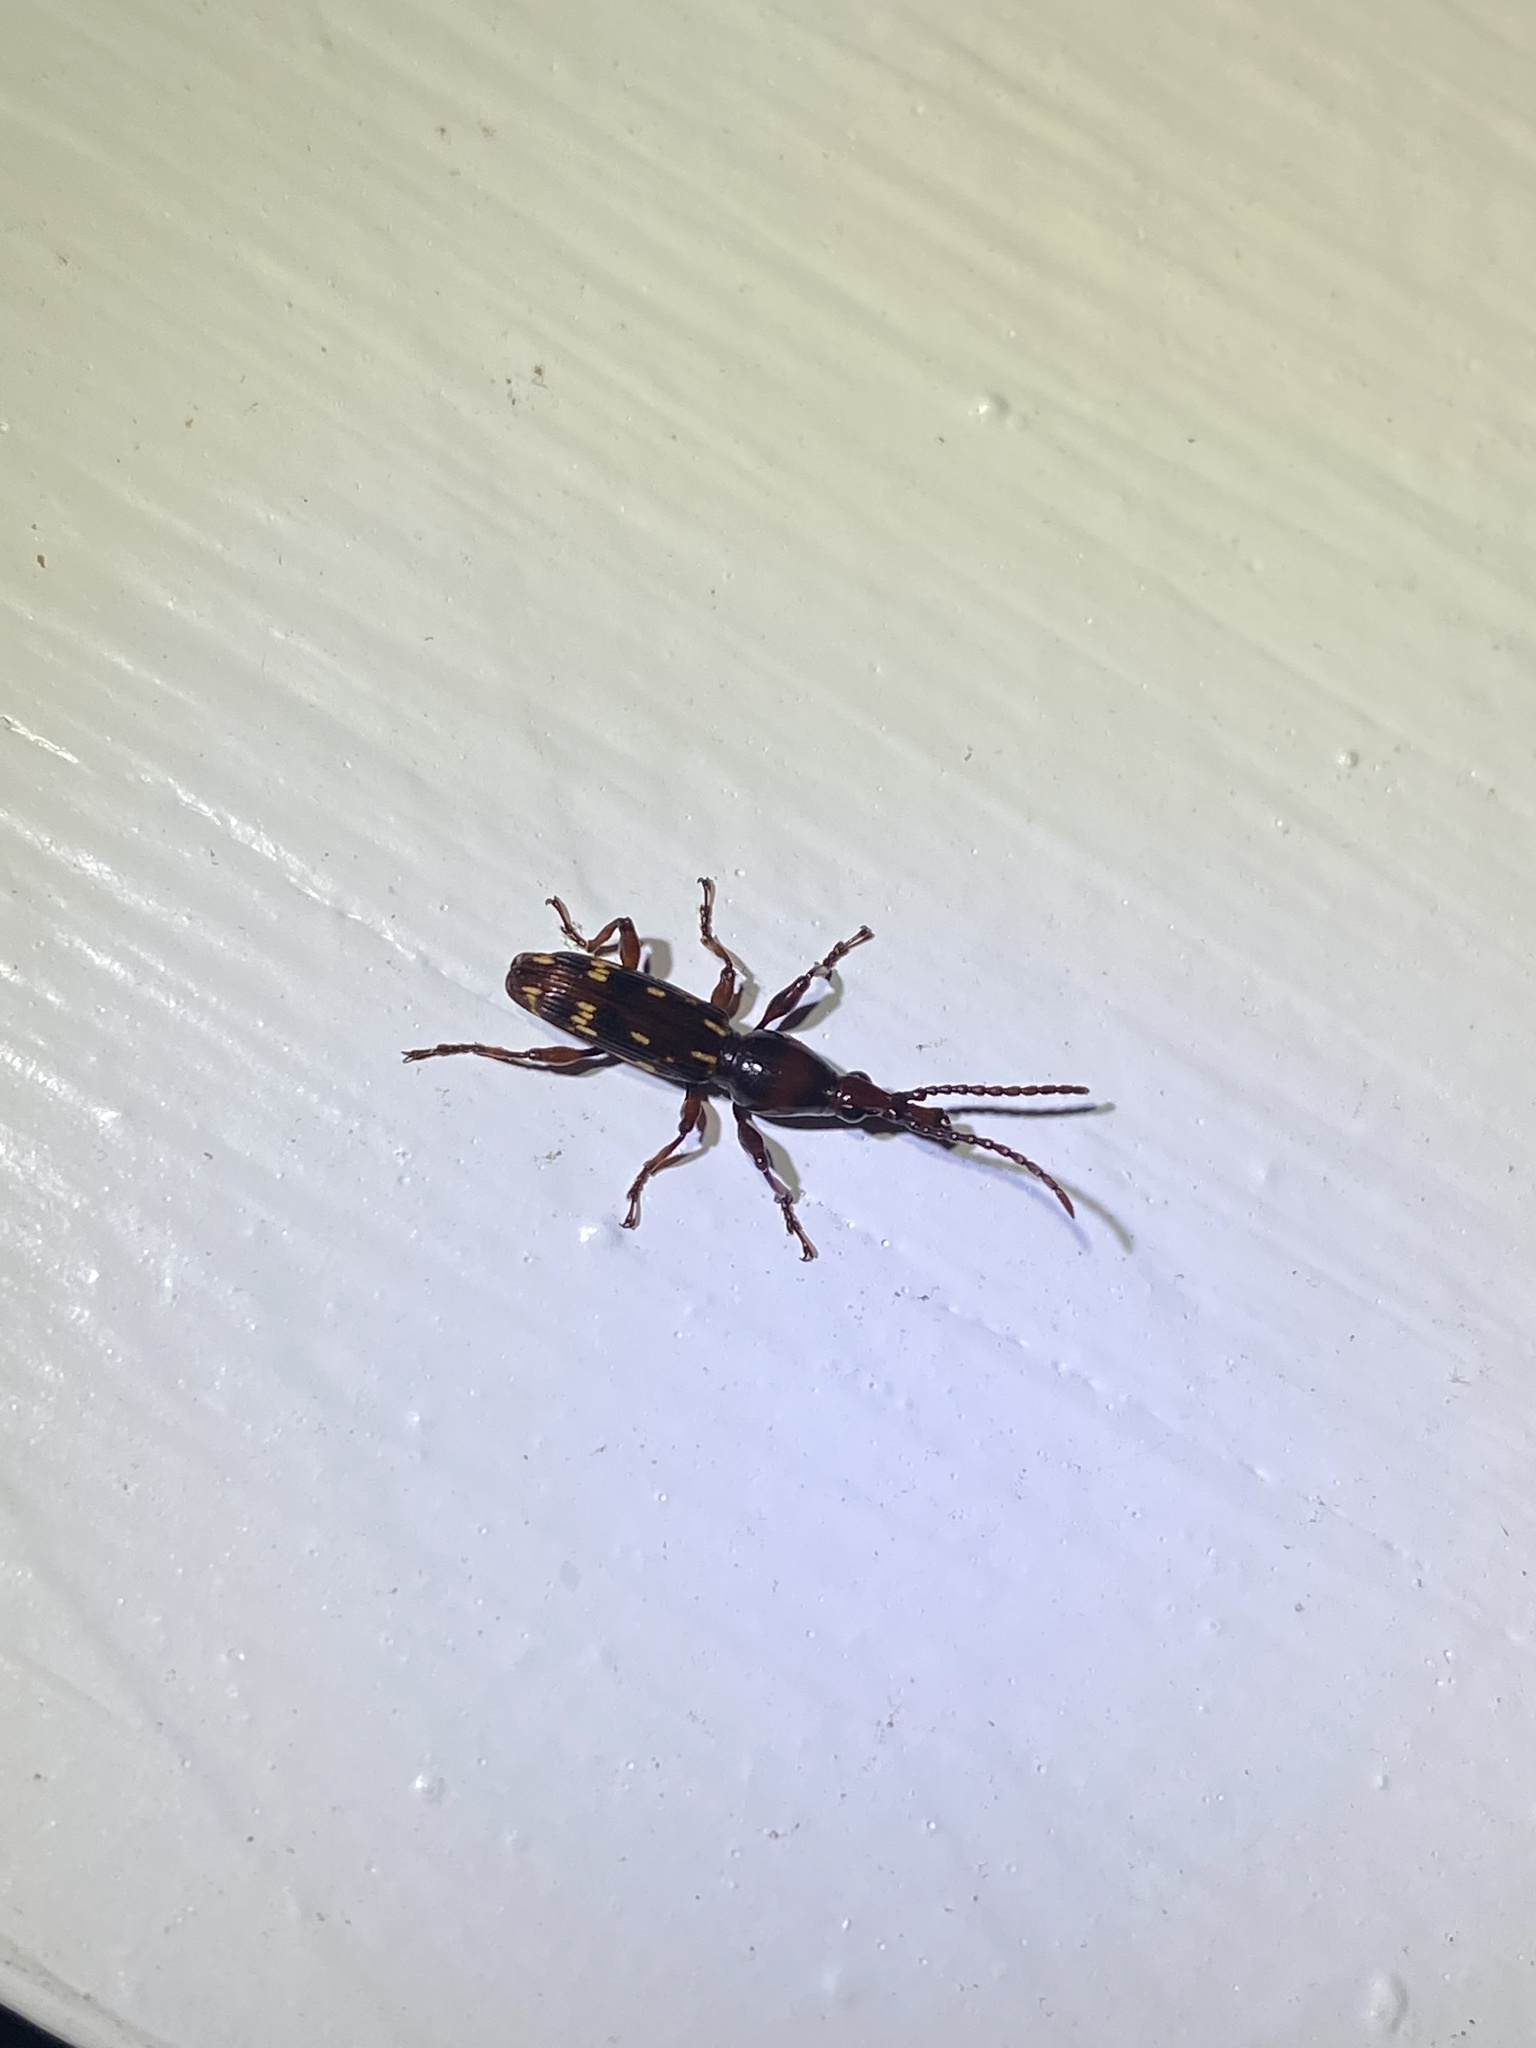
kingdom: Animalia
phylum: Arthropoda
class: Insecta
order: Coleoptera
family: Brentidae
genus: Arrenodes
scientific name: Arrenodes minutus
